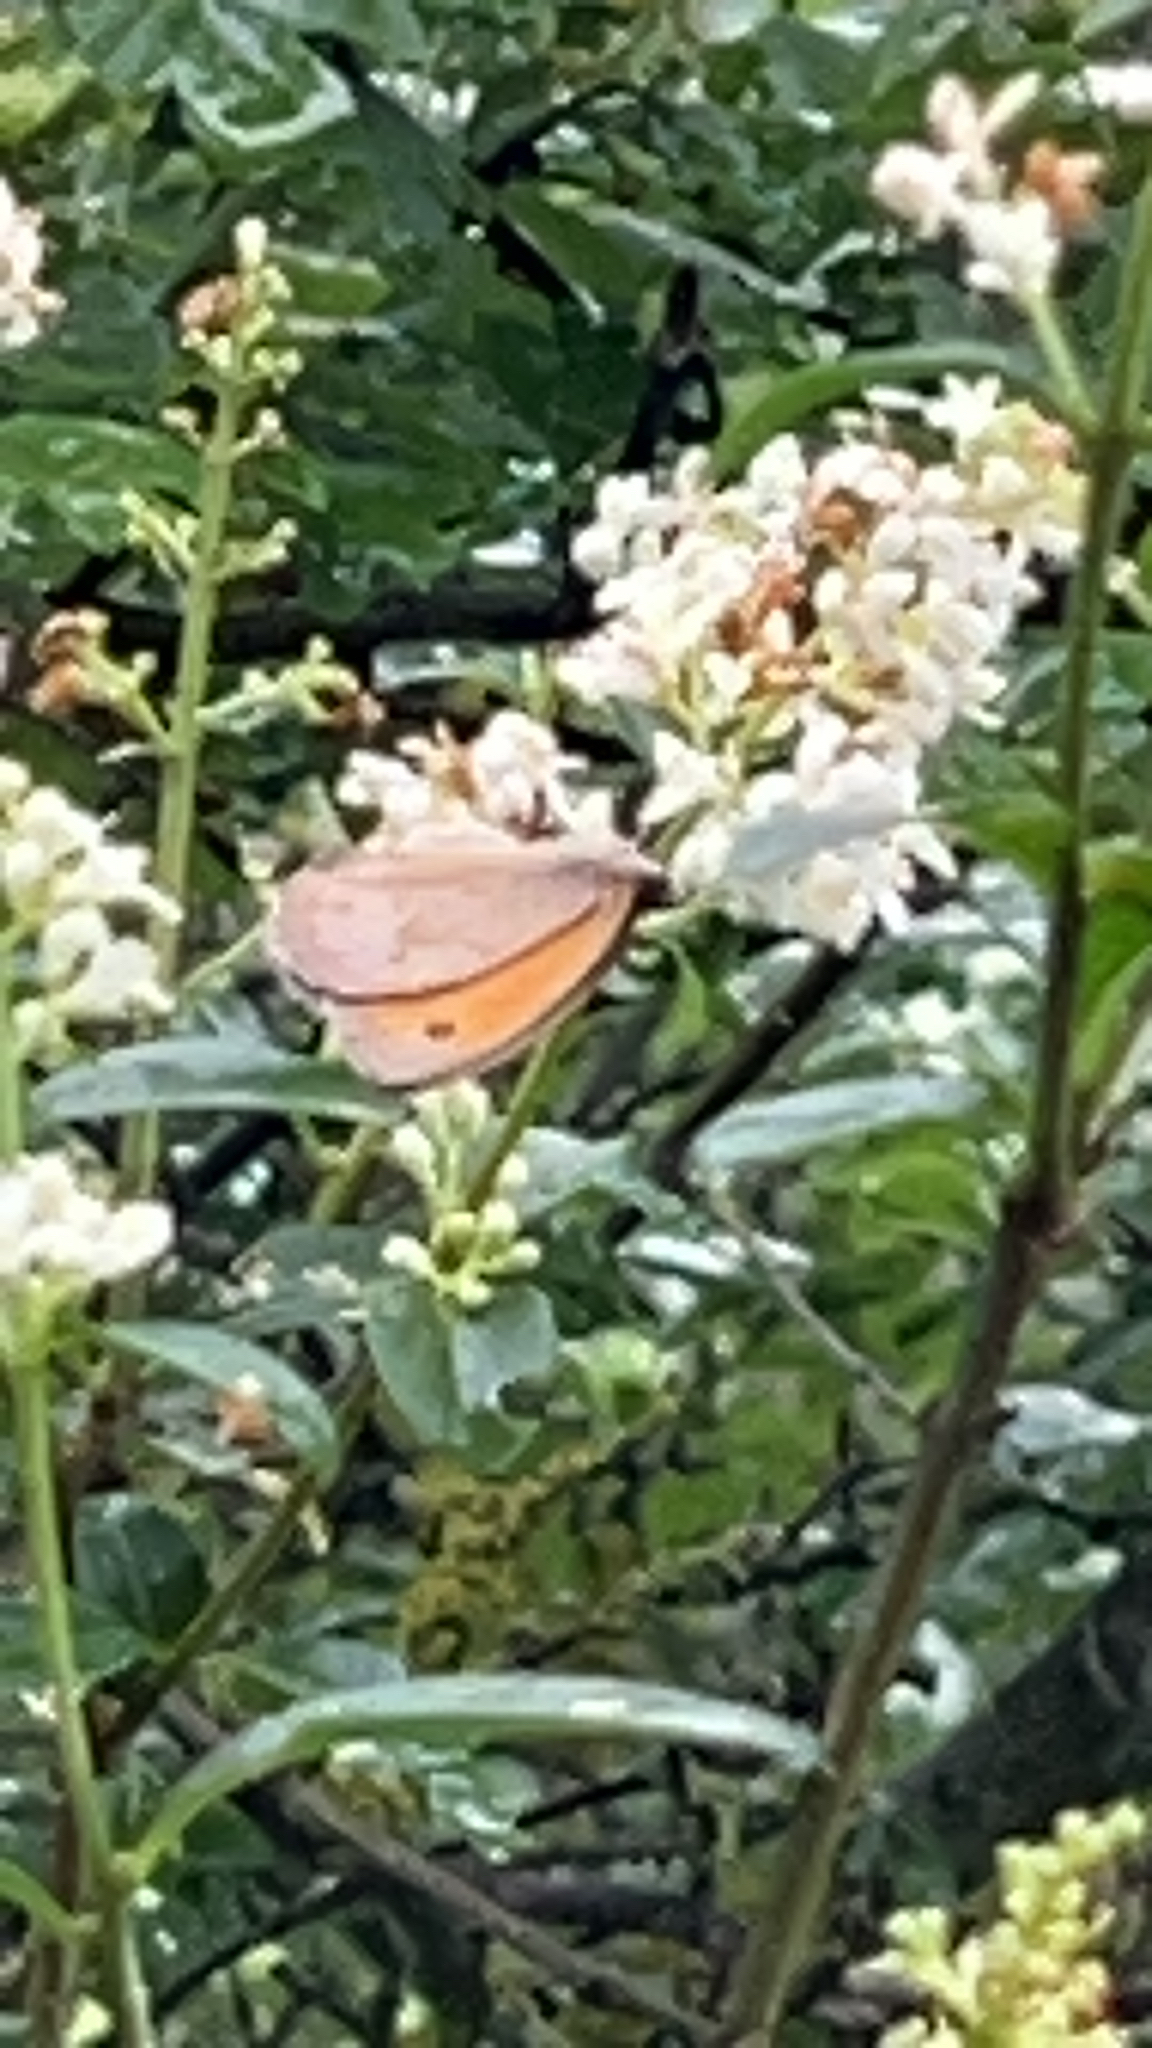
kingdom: Animalia
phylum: Arthropoda
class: Insecta
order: Lepidoptera
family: Nymphalidae
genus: Maniola
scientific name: Maniola jurtina
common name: Meadow brown
